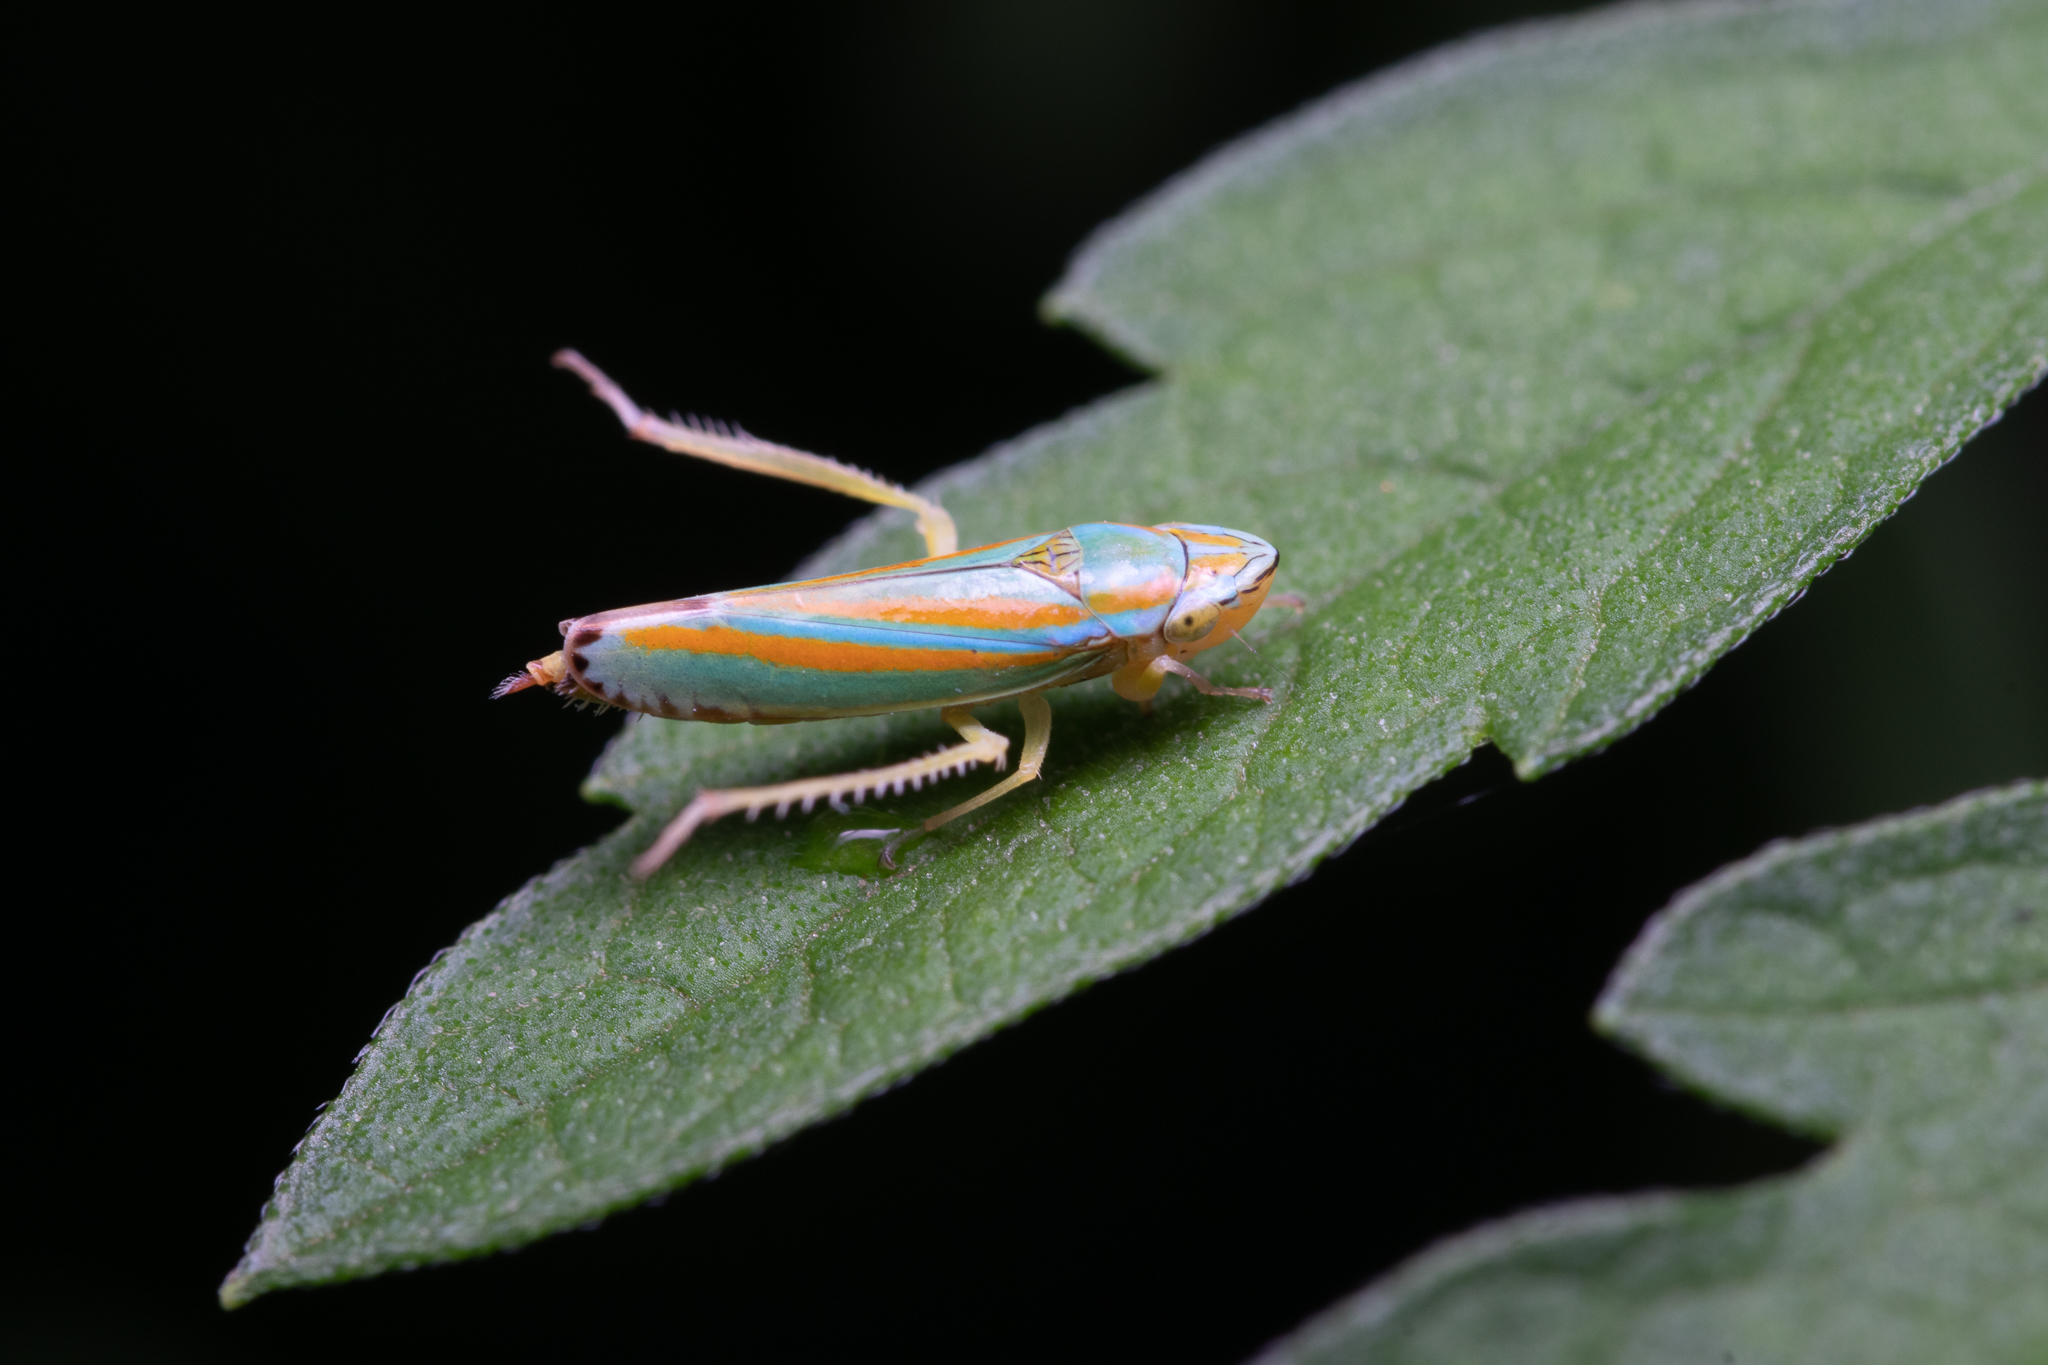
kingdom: Animalia
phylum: Arthropoda
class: Insecta
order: Hemiptera
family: Cicadellidae
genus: Graphocephala
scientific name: Graphocephala versuta
